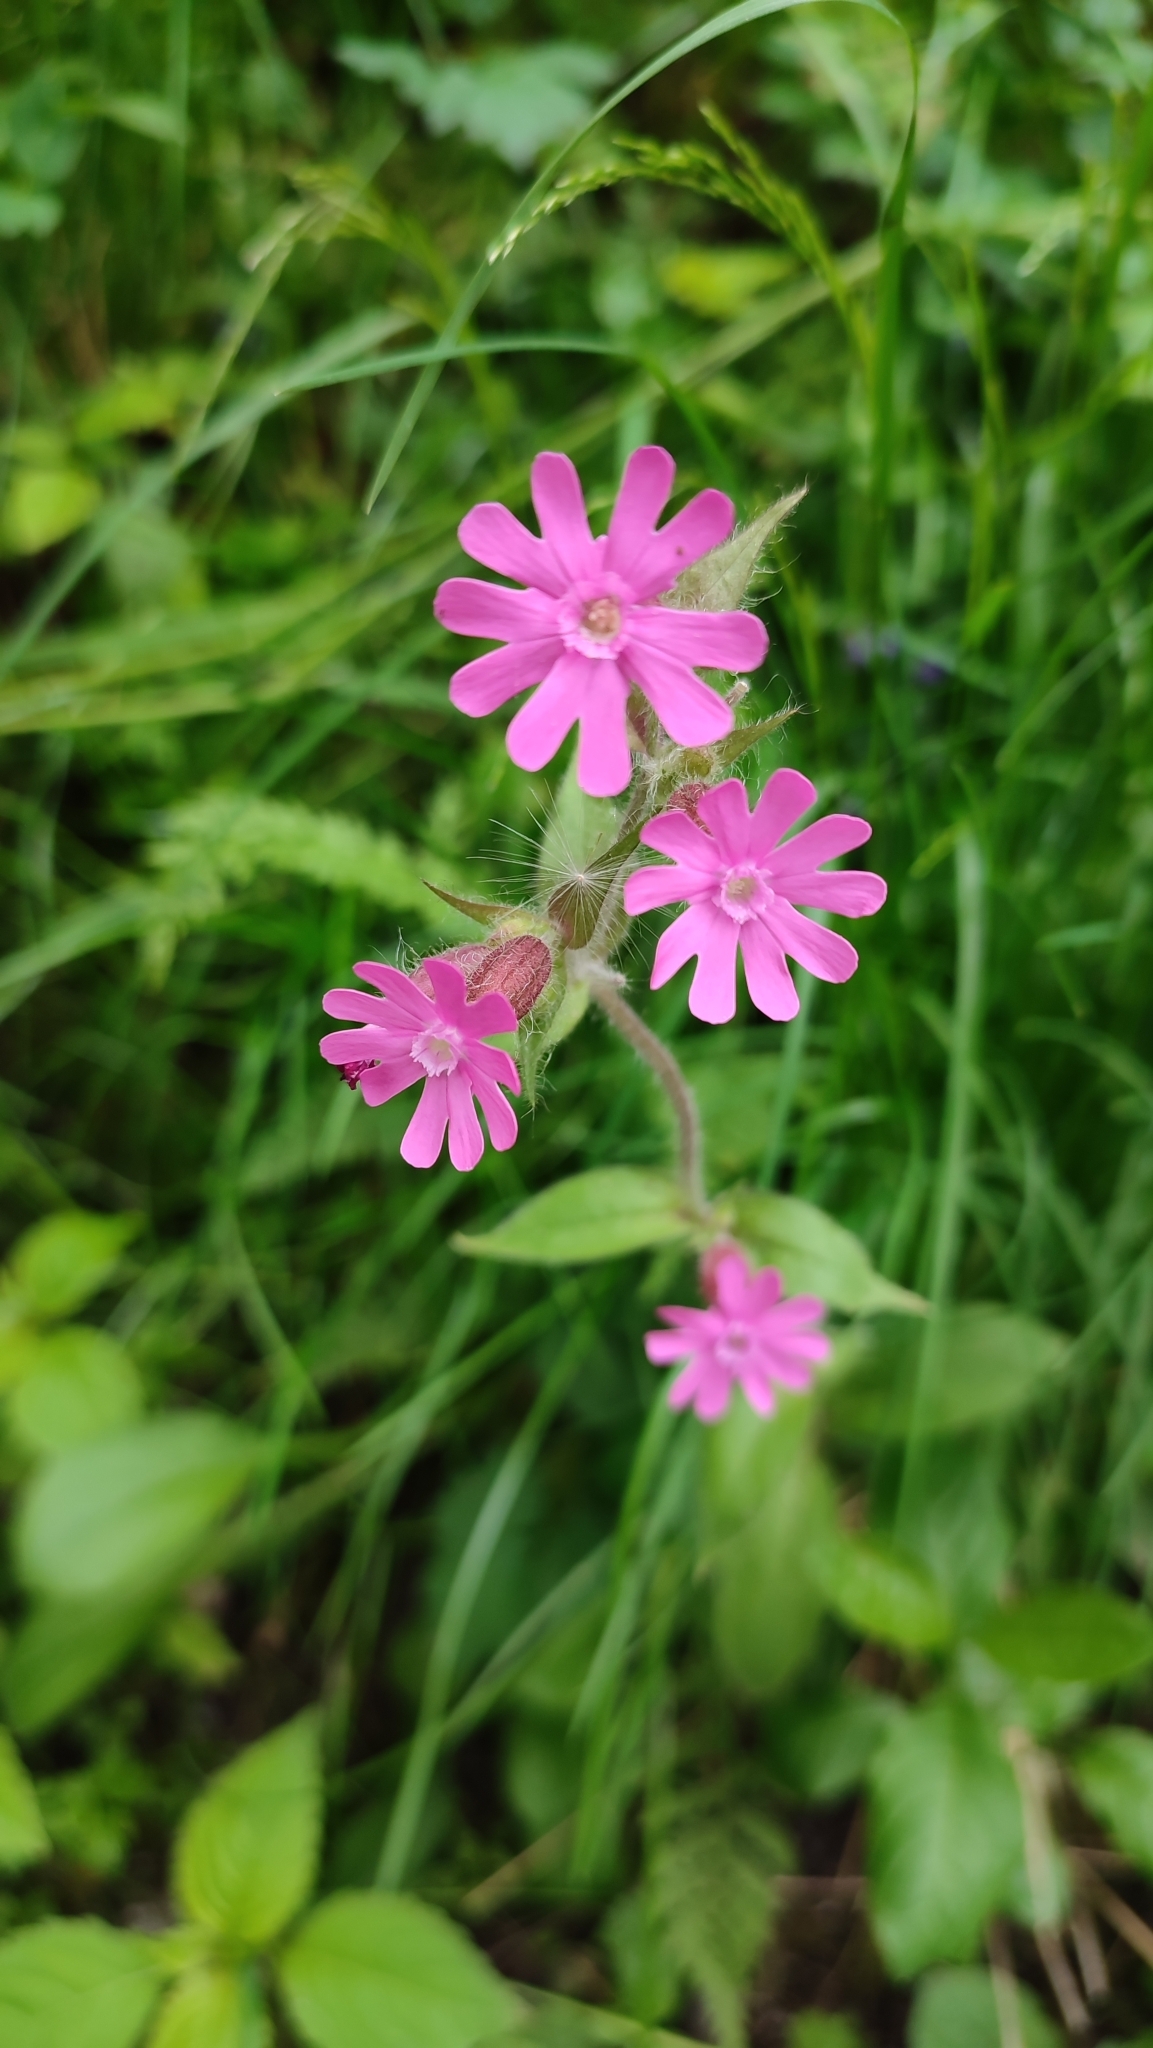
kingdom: Plantae
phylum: Tracheophyta
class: Magnoliopsida
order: Caryophyllales
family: Caryophyllaceae
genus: Silene
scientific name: Silene dioica
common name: Red campion
